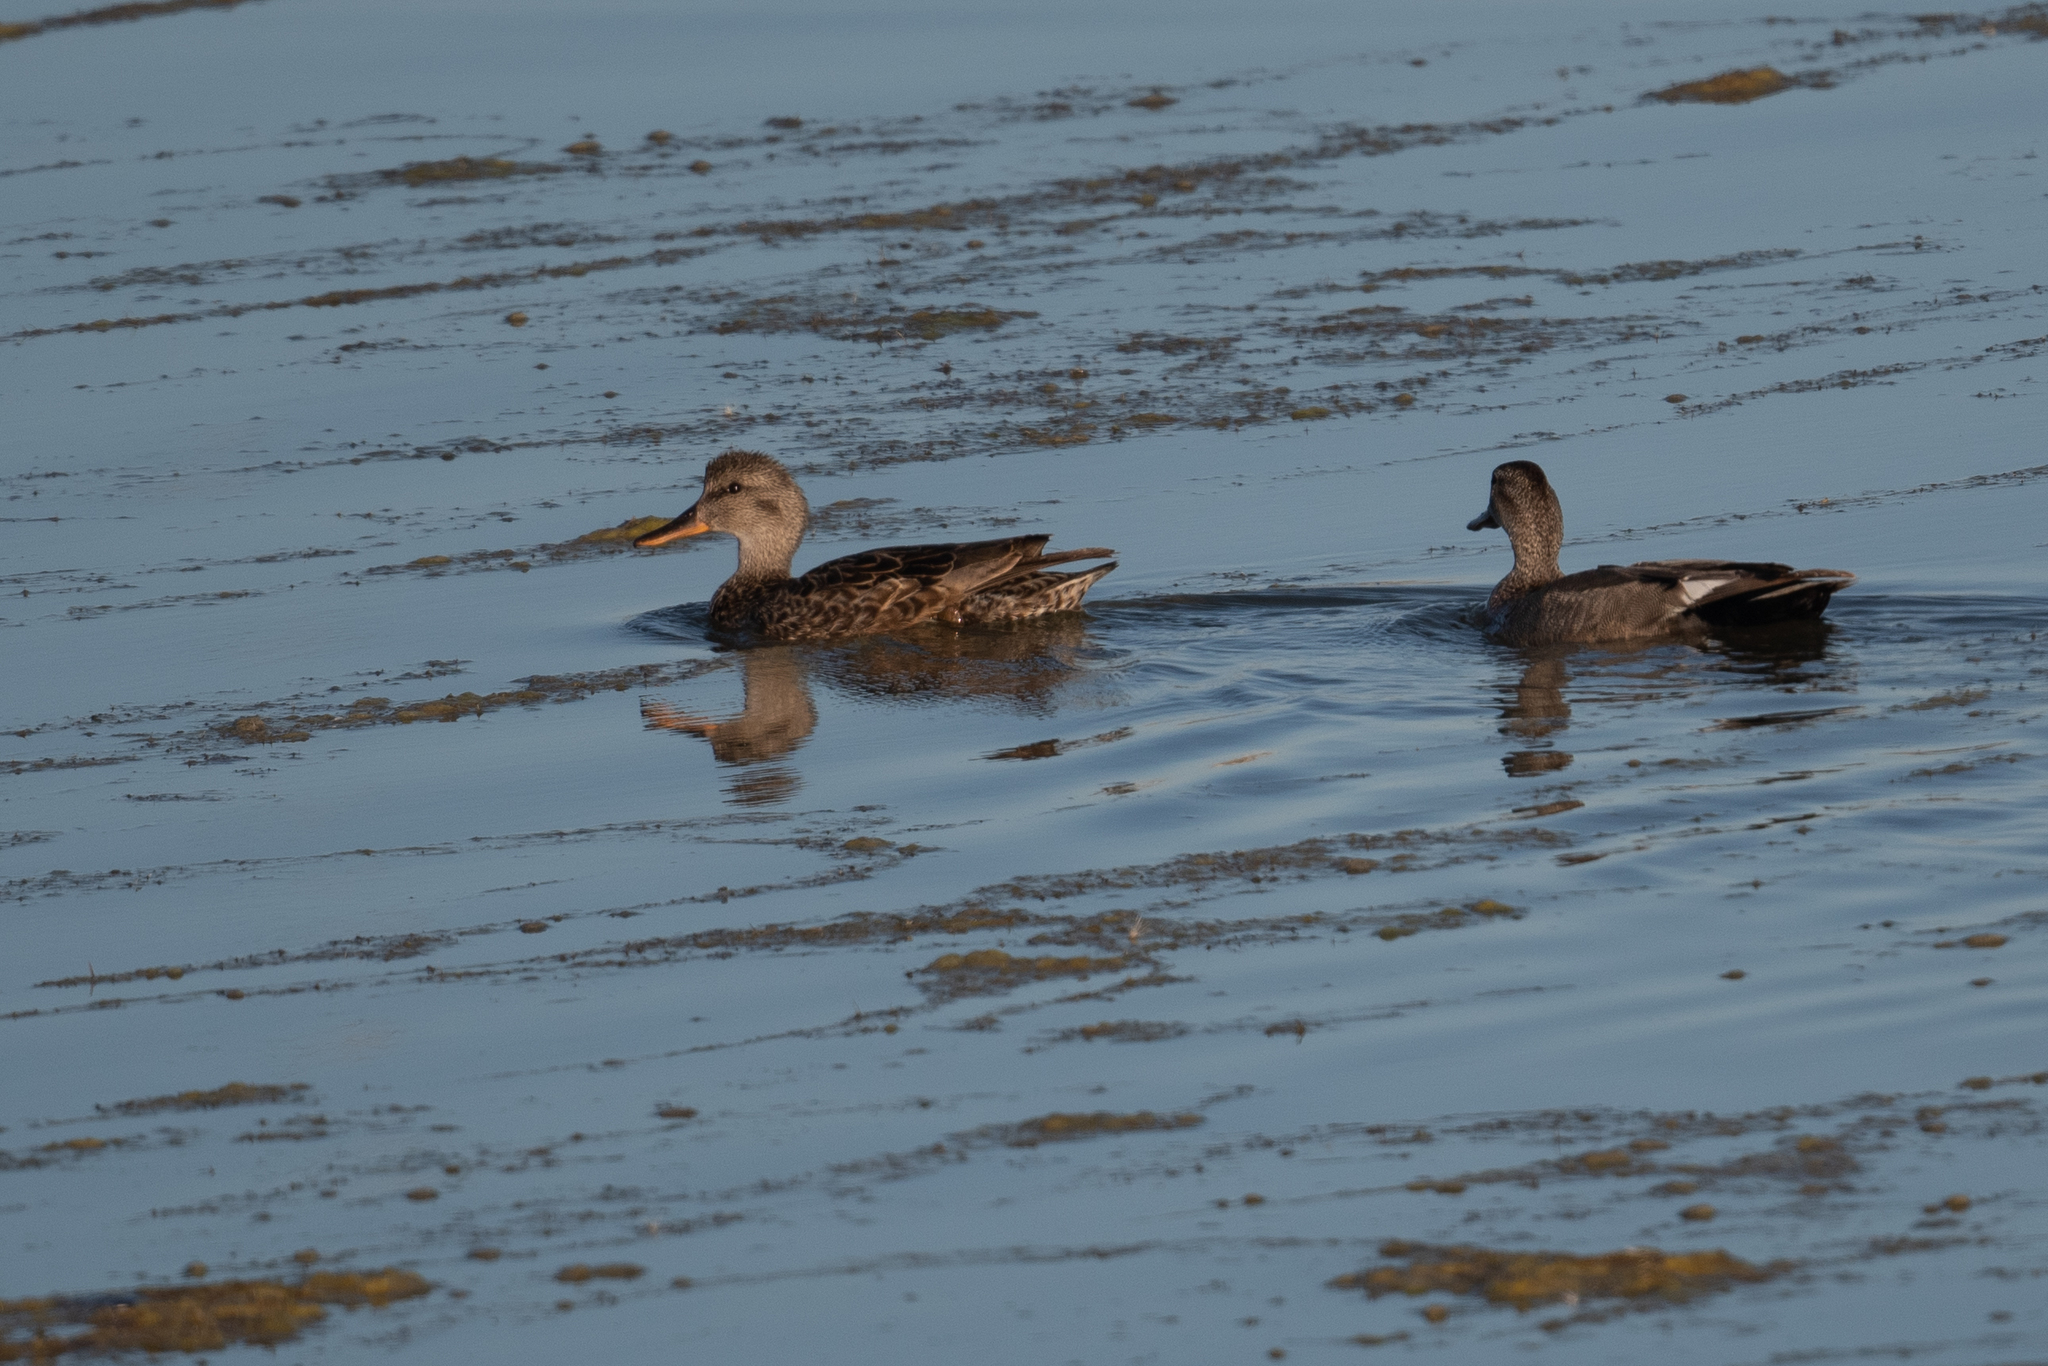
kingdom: Animalia
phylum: Chordata
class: Aves
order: Anseriformes
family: Anatidae
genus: Mareca
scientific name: Mareca strepera
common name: Gadwall
